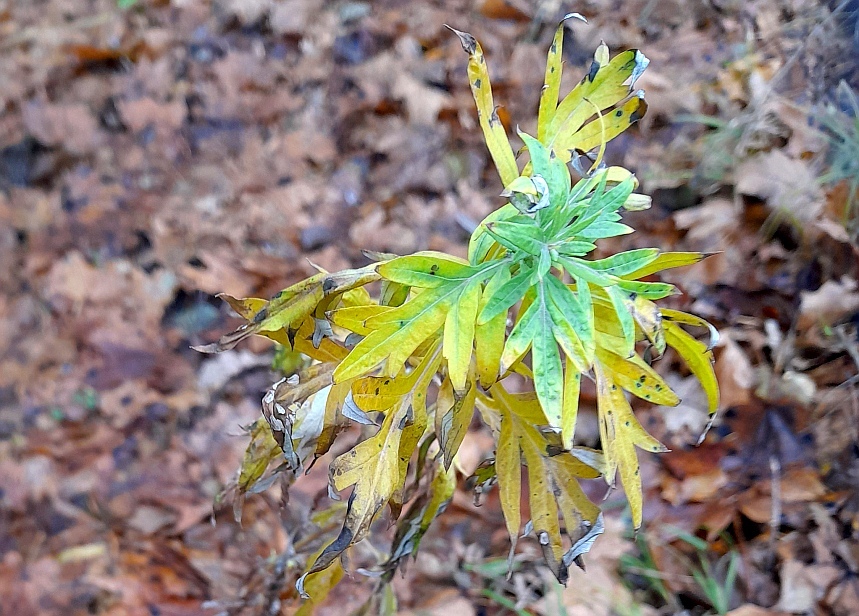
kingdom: Plantae
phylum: Tracheophyta
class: Magnoliopsida
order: Asterales
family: Asteraceae
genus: Artemisia
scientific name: Artemisia vulgaris
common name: Mugwort
